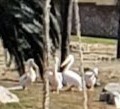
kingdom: Animalia
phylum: Chordata
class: Aves
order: Pelecaniformes
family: Pelecanidae
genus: Pelecanus
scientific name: Pelecanus erythrorhynchos
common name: American white pelican
